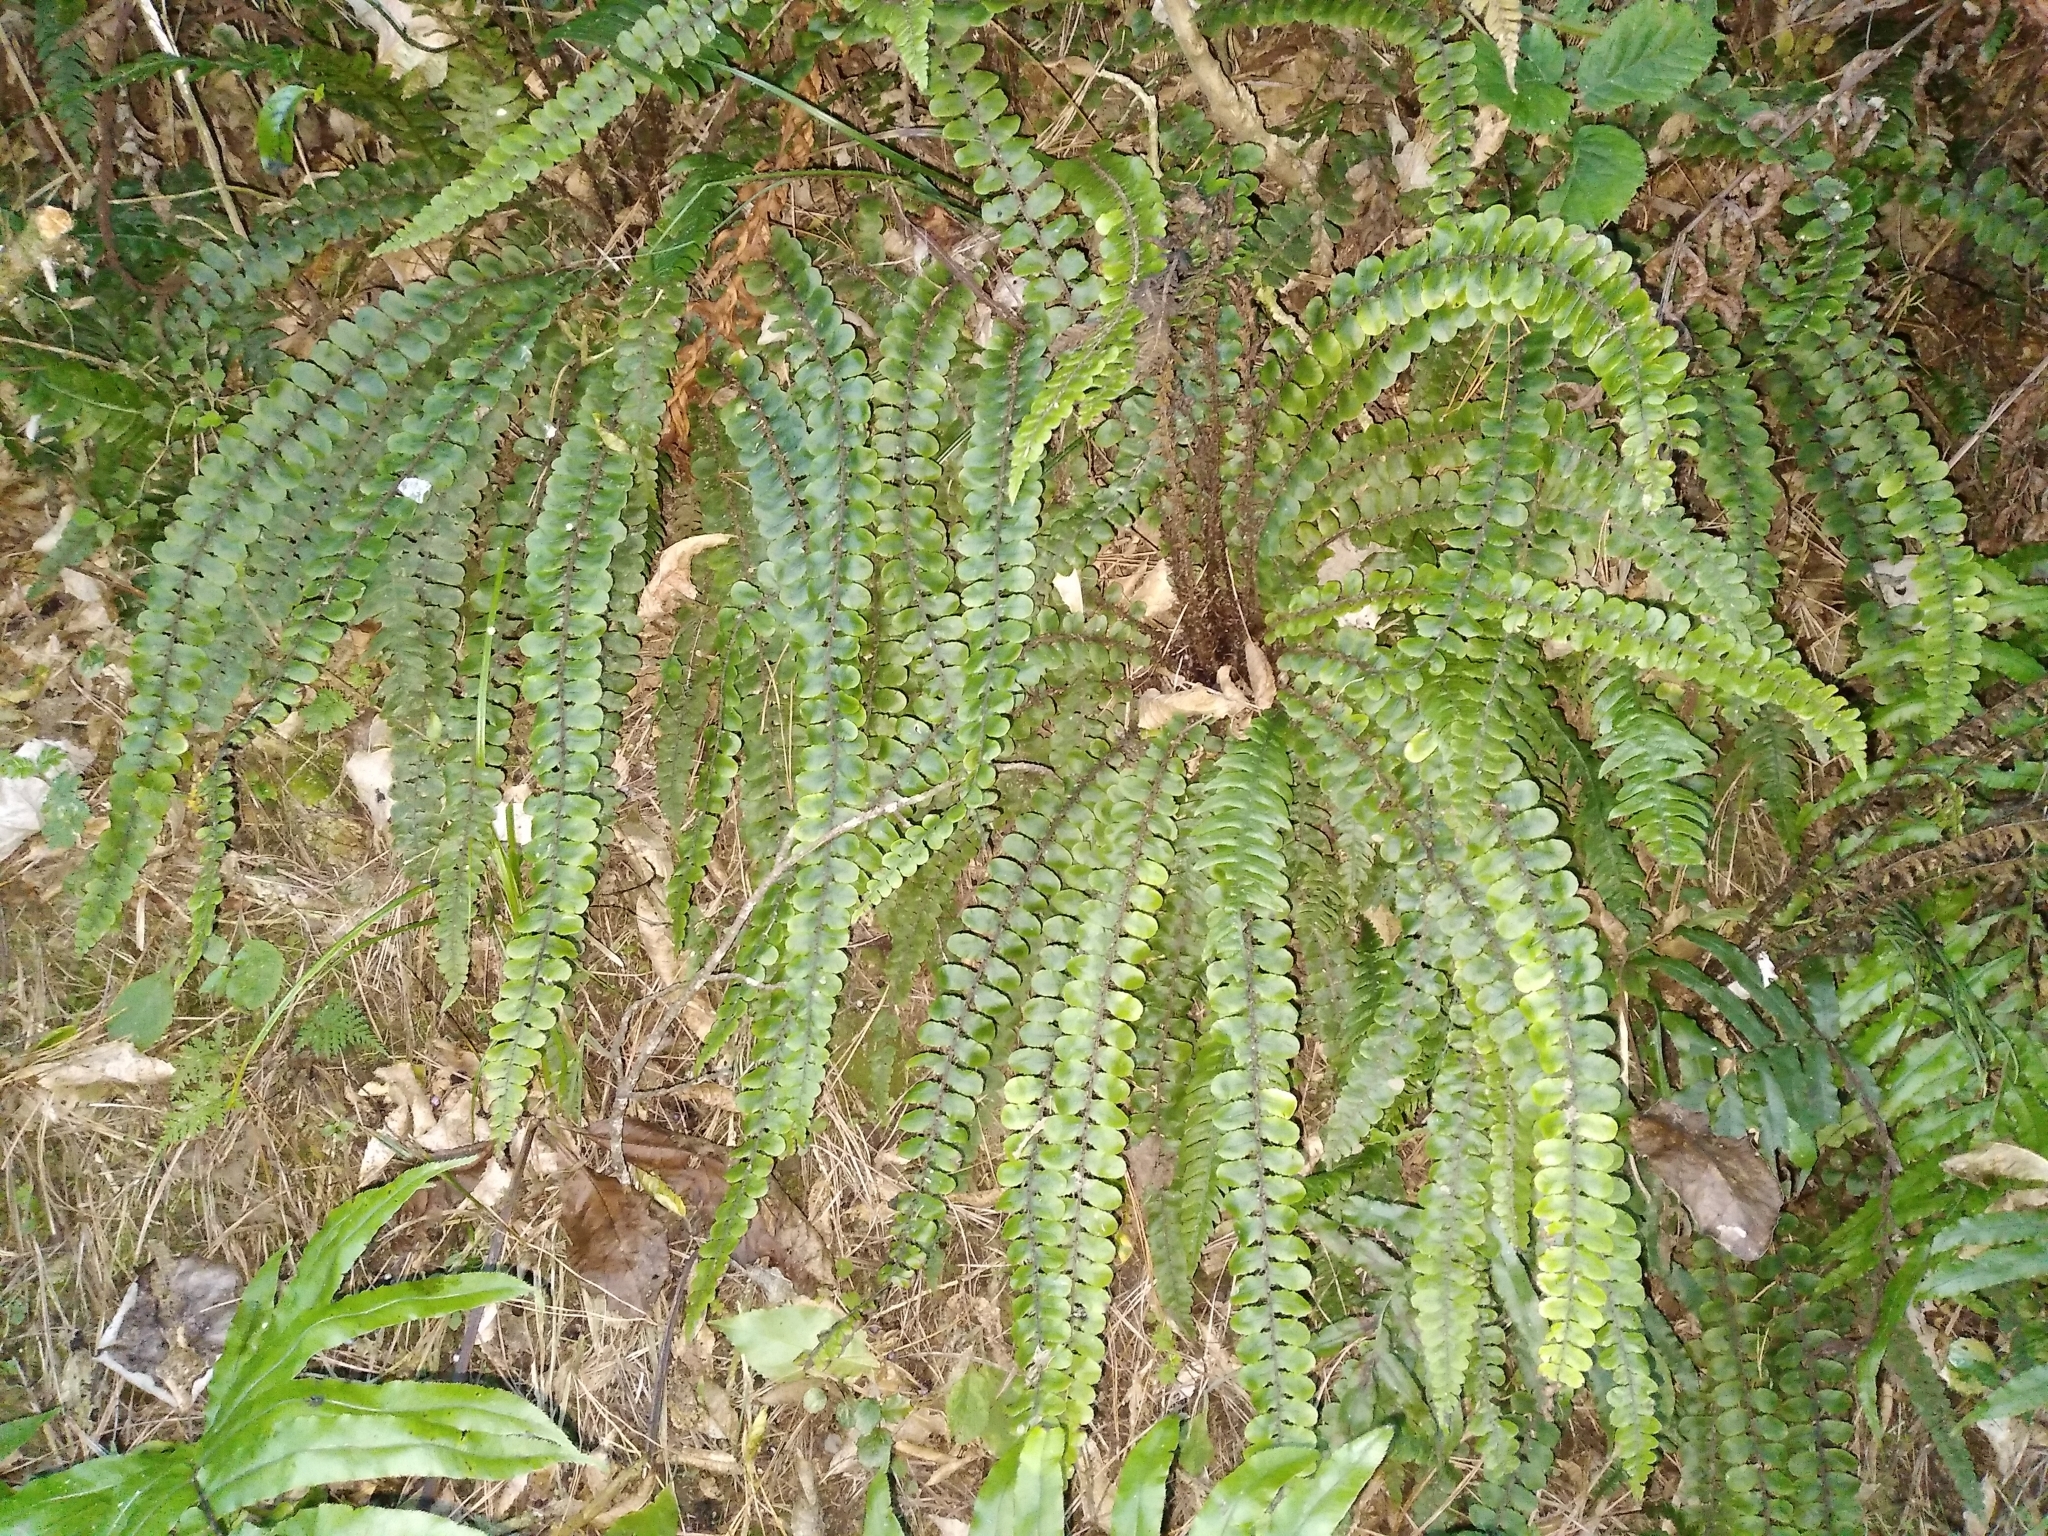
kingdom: Plantae
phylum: Tracheophyta
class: Polypodiopsida
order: Polypodiales
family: Blechnaceae
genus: Cranfillia
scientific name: Cranfillia fluviatilis
